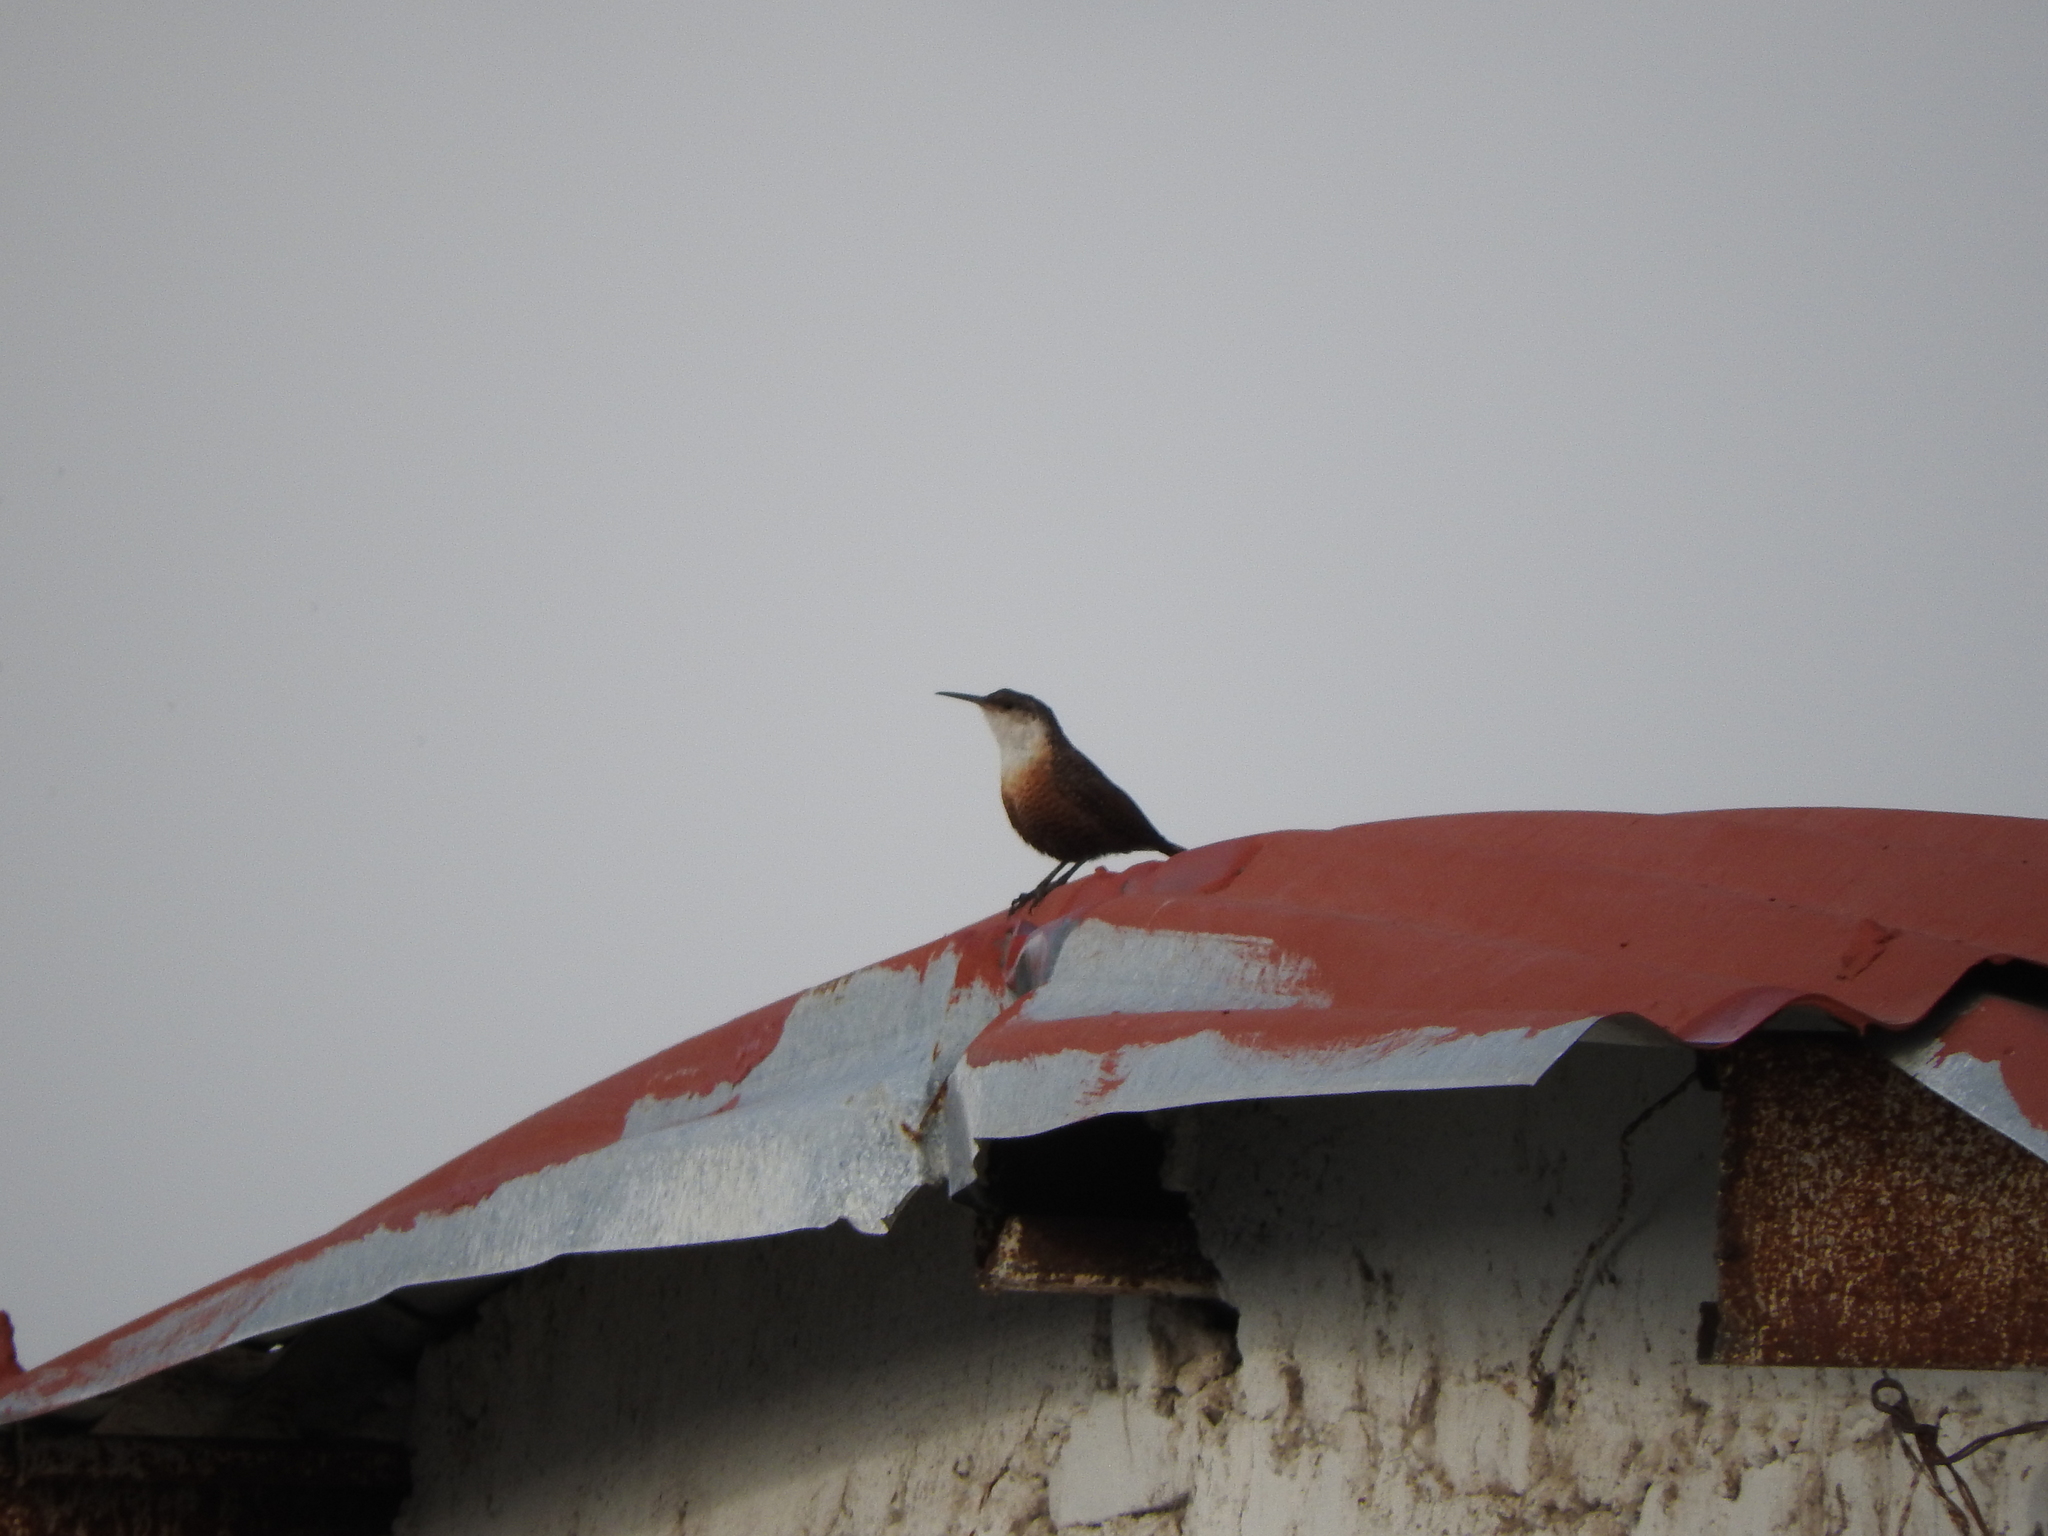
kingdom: Animalia
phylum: Chordata
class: Aves
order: Passeriformes
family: Troglodytidae
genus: Catherpes
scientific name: Catherpes mexicanus
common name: Canyon wren
